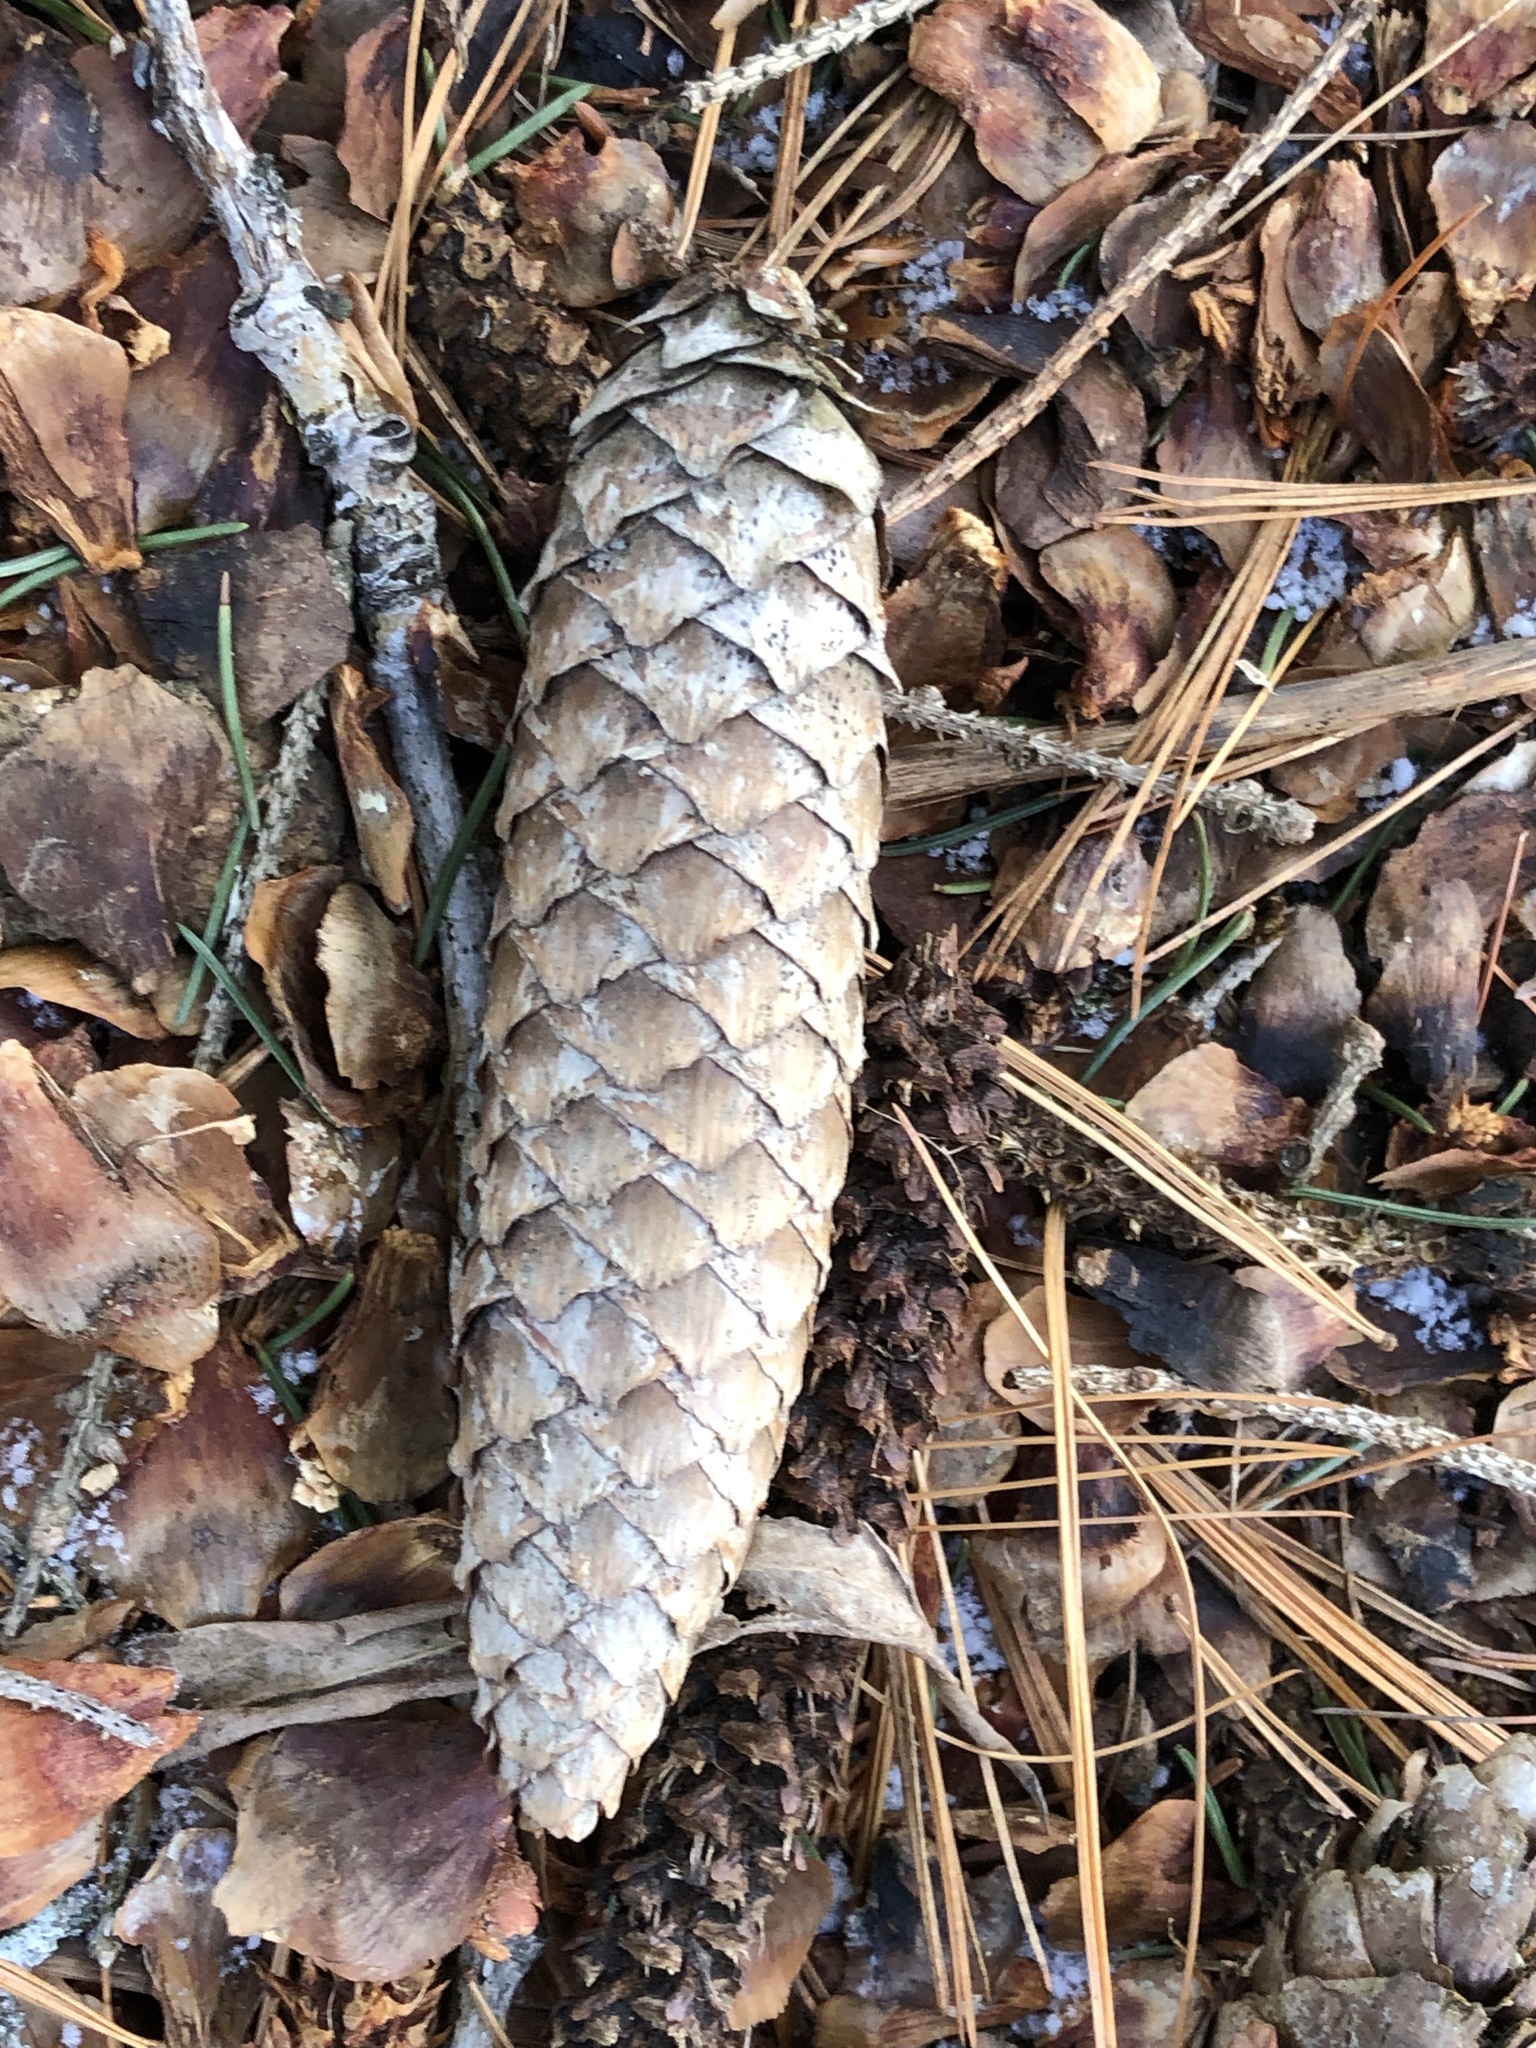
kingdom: Plantae
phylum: Tracheophyta
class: Pinopsida
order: Pinales
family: Pinaceae
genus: Picea
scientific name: Picea abies
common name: Norway spruce
